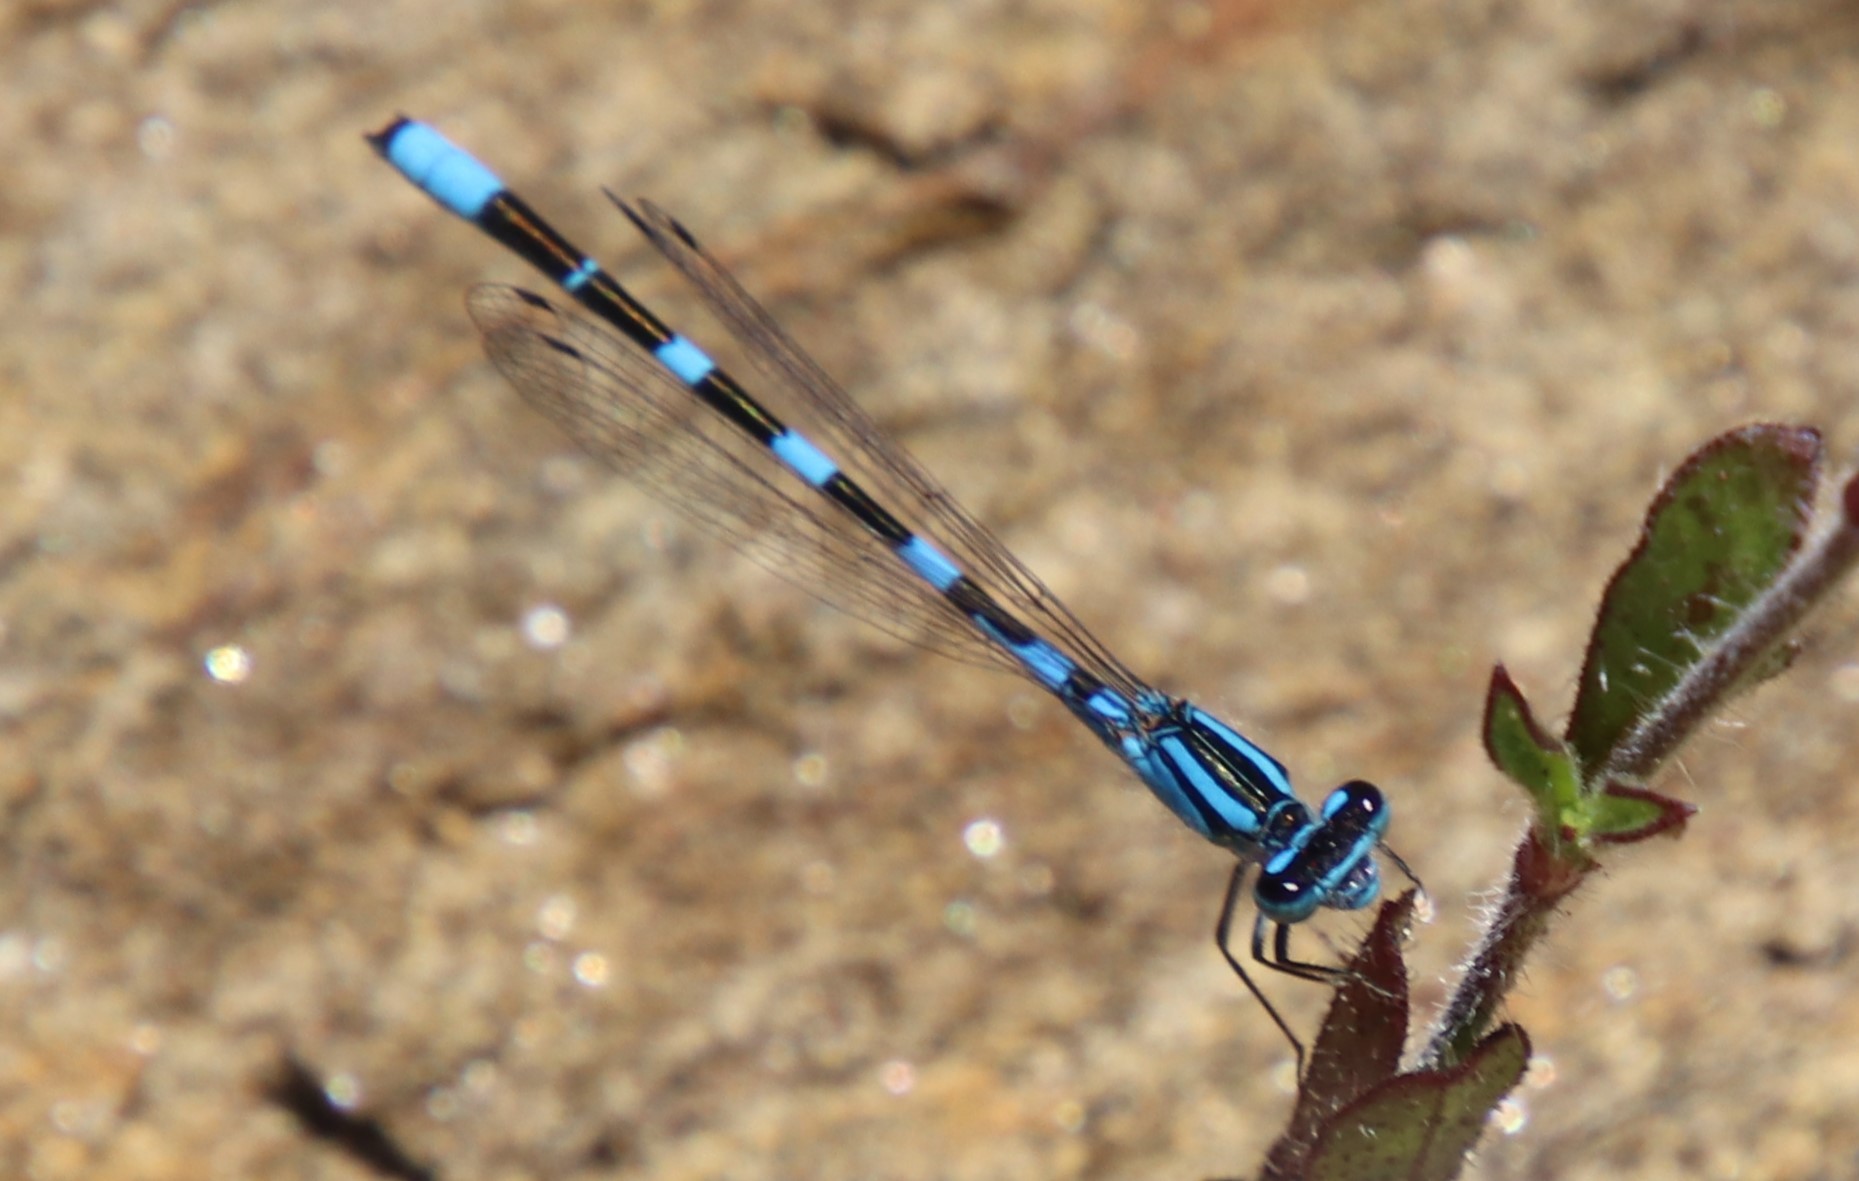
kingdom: Animalia
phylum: Arthropoda
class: Insecta
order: Odonata
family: Coenagrionidae
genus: Enallagma
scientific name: Enallagma carunculatum
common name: Tule bluet
